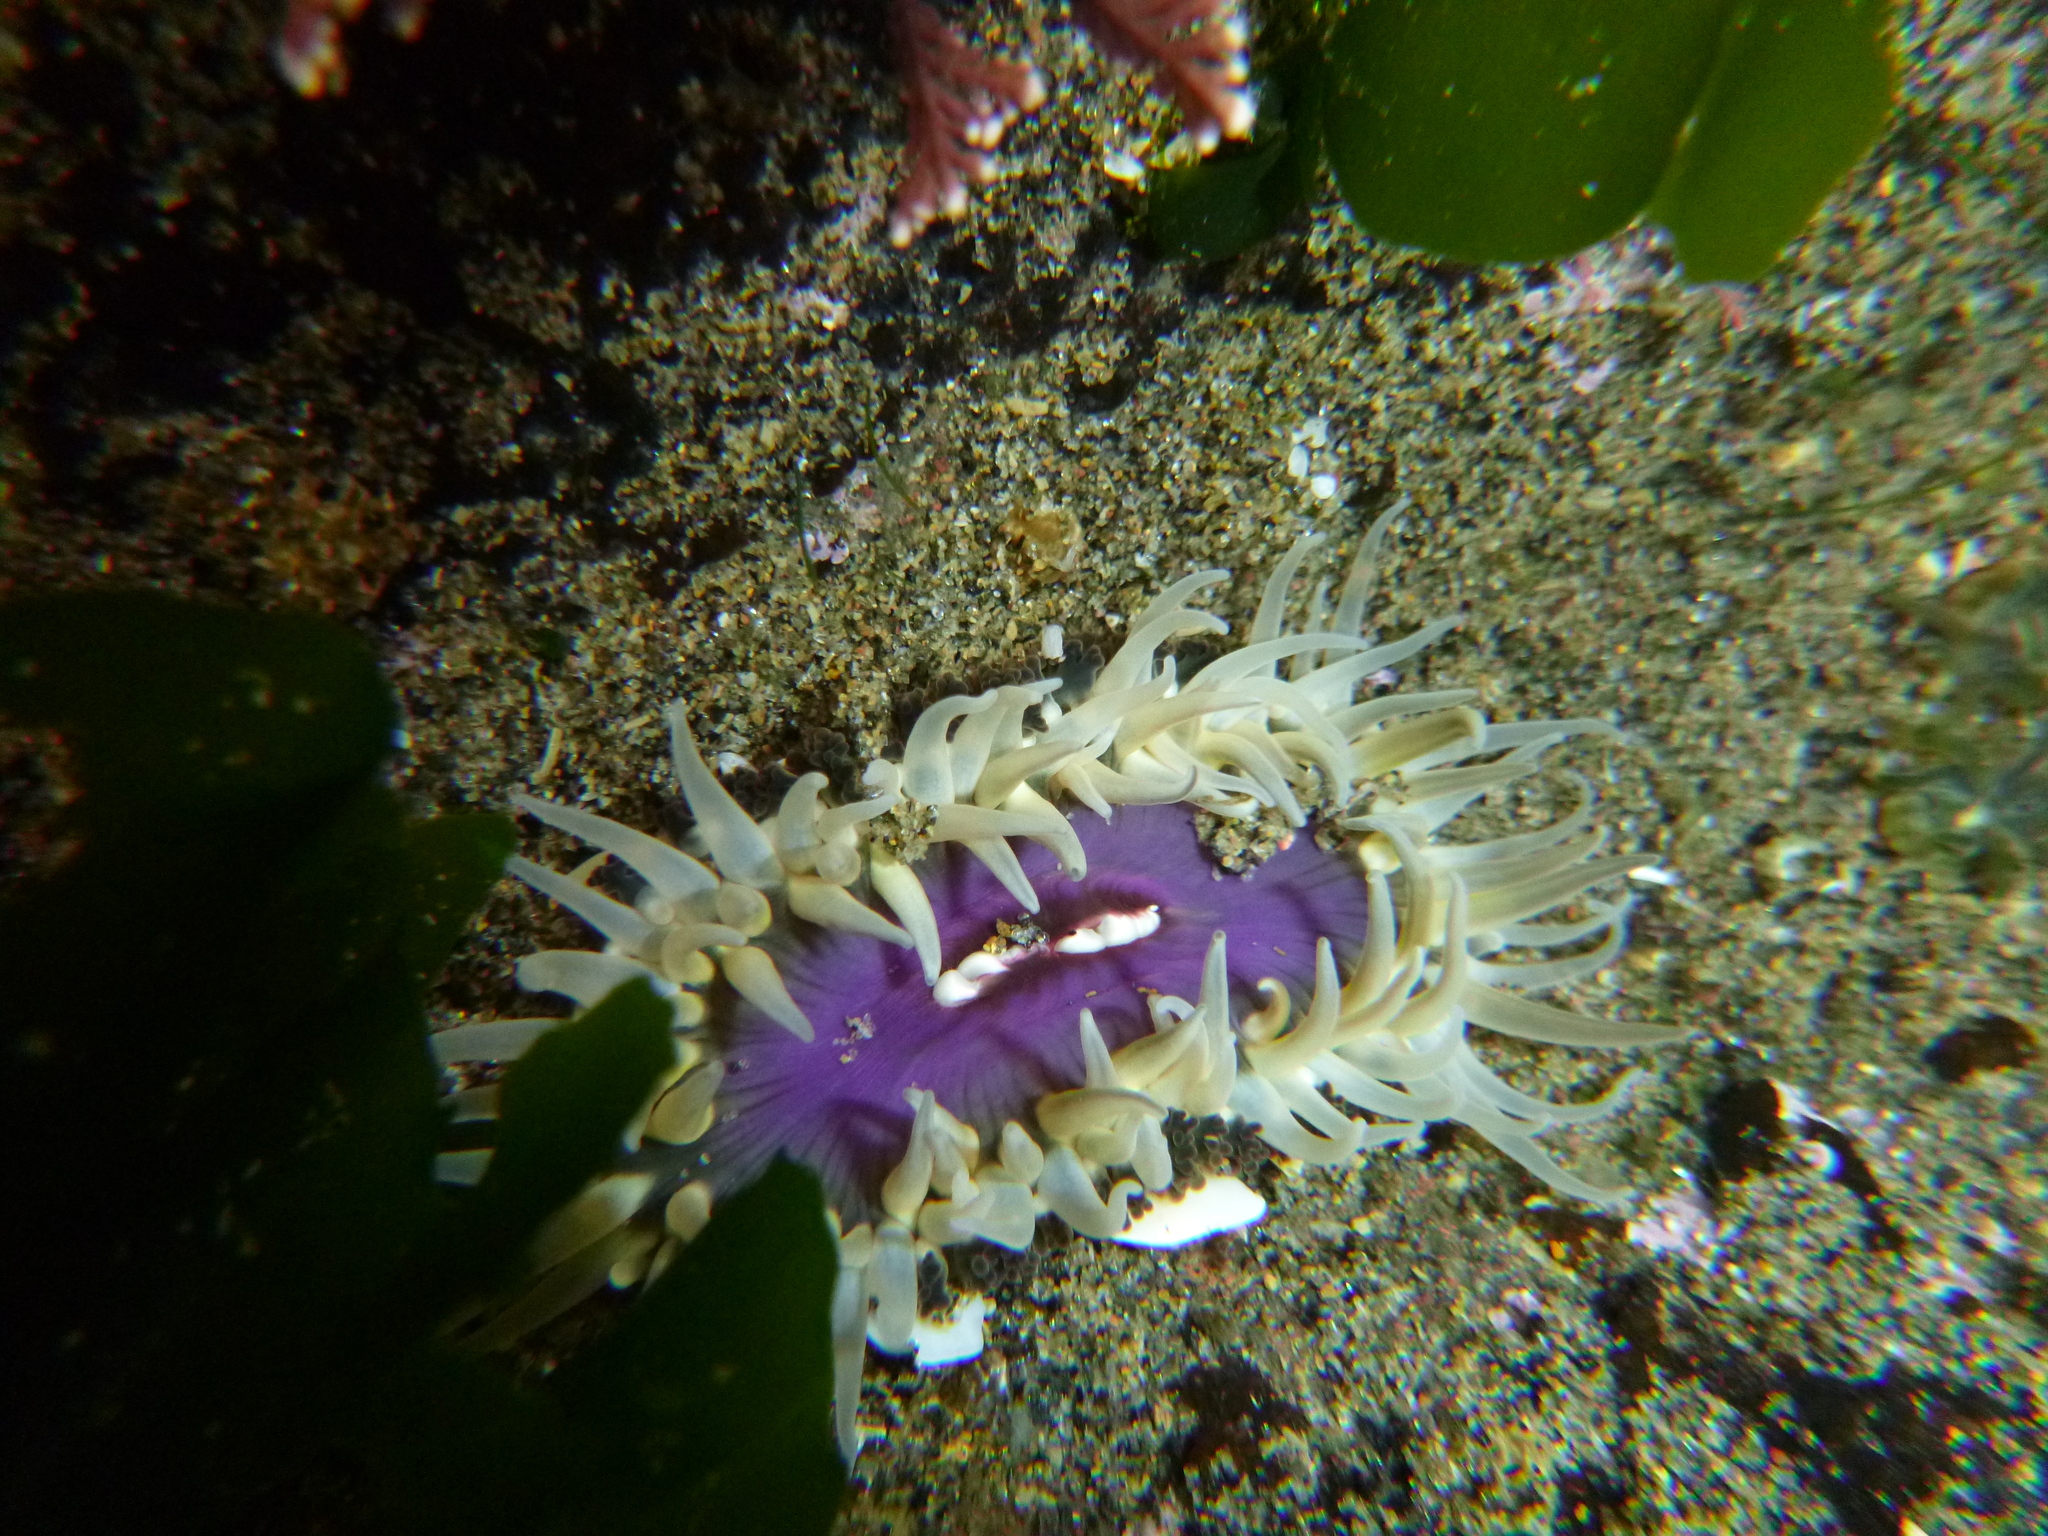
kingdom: Animalia
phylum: Cnidaria
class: Anthozoa
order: Actiniaria
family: Actiniidae
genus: Oulactis
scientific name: Oulactis magna
